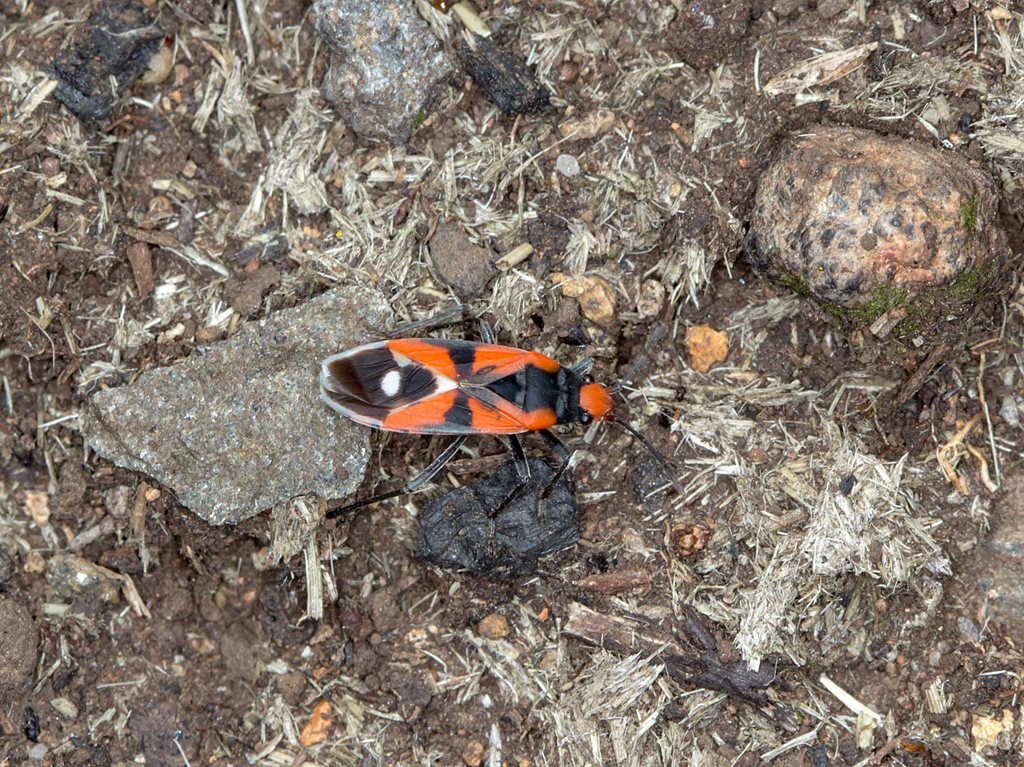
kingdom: Animalia
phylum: Arthropoda
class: Insecta
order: Hemiptera
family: Lygaeidae
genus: Melanerythrus
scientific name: Melanerythrus mactans
